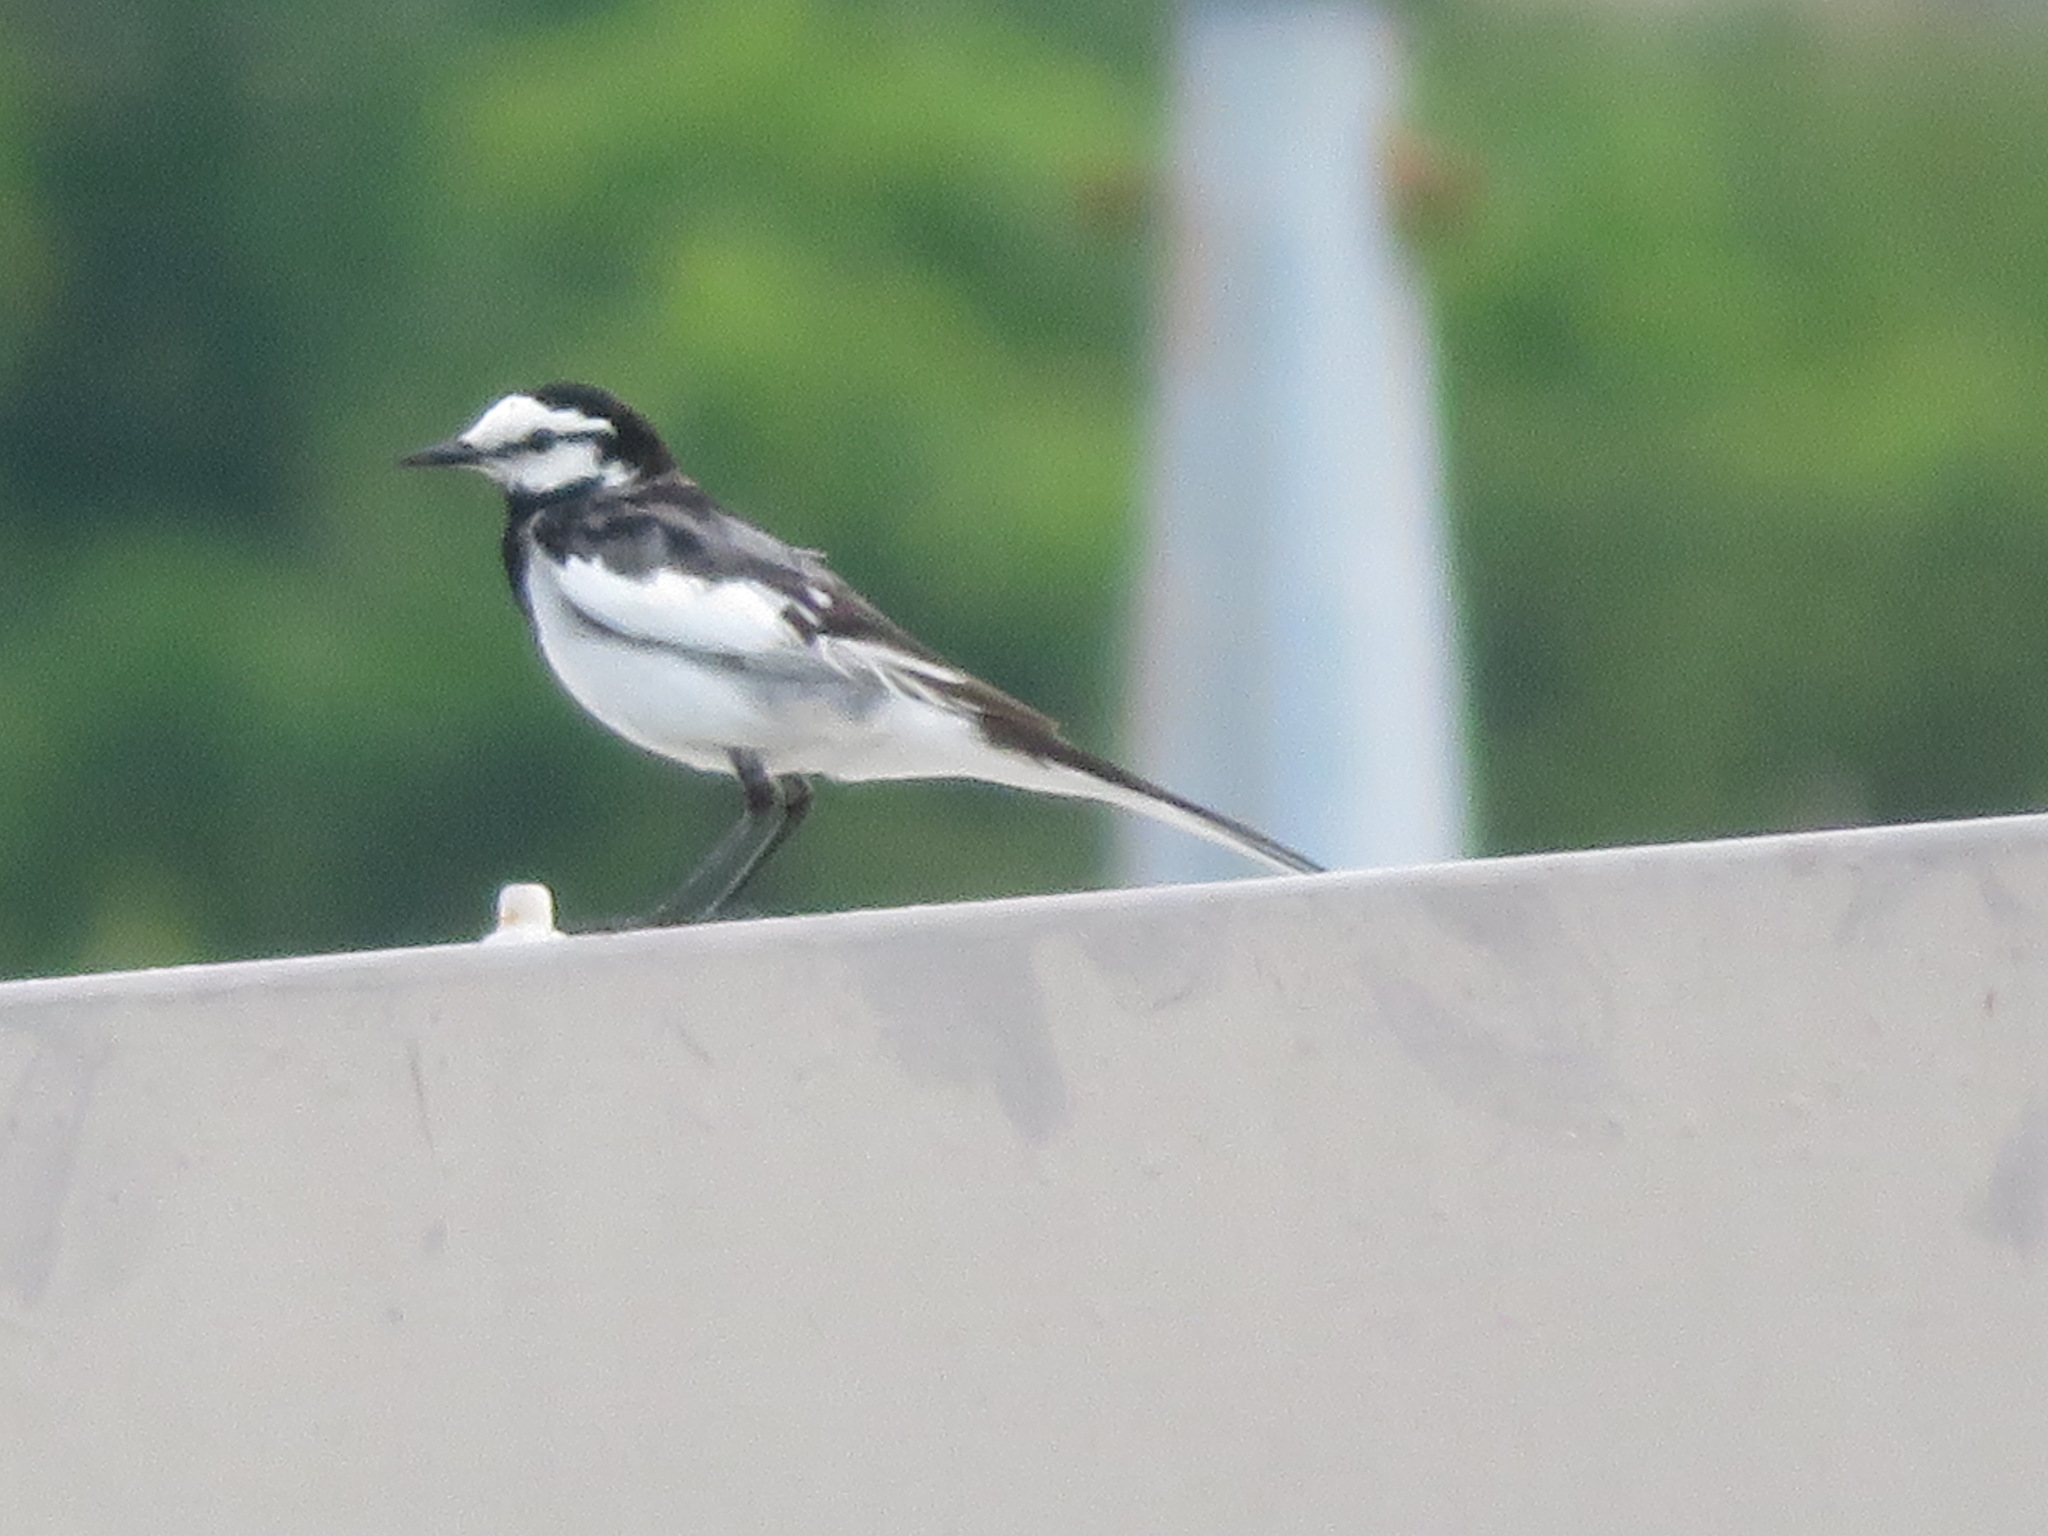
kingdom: Animalia
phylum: Chordata
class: Aves
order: Passeriformes
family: Motacillidae
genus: Motacilla
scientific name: Motacilla alba
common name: White wagtail
